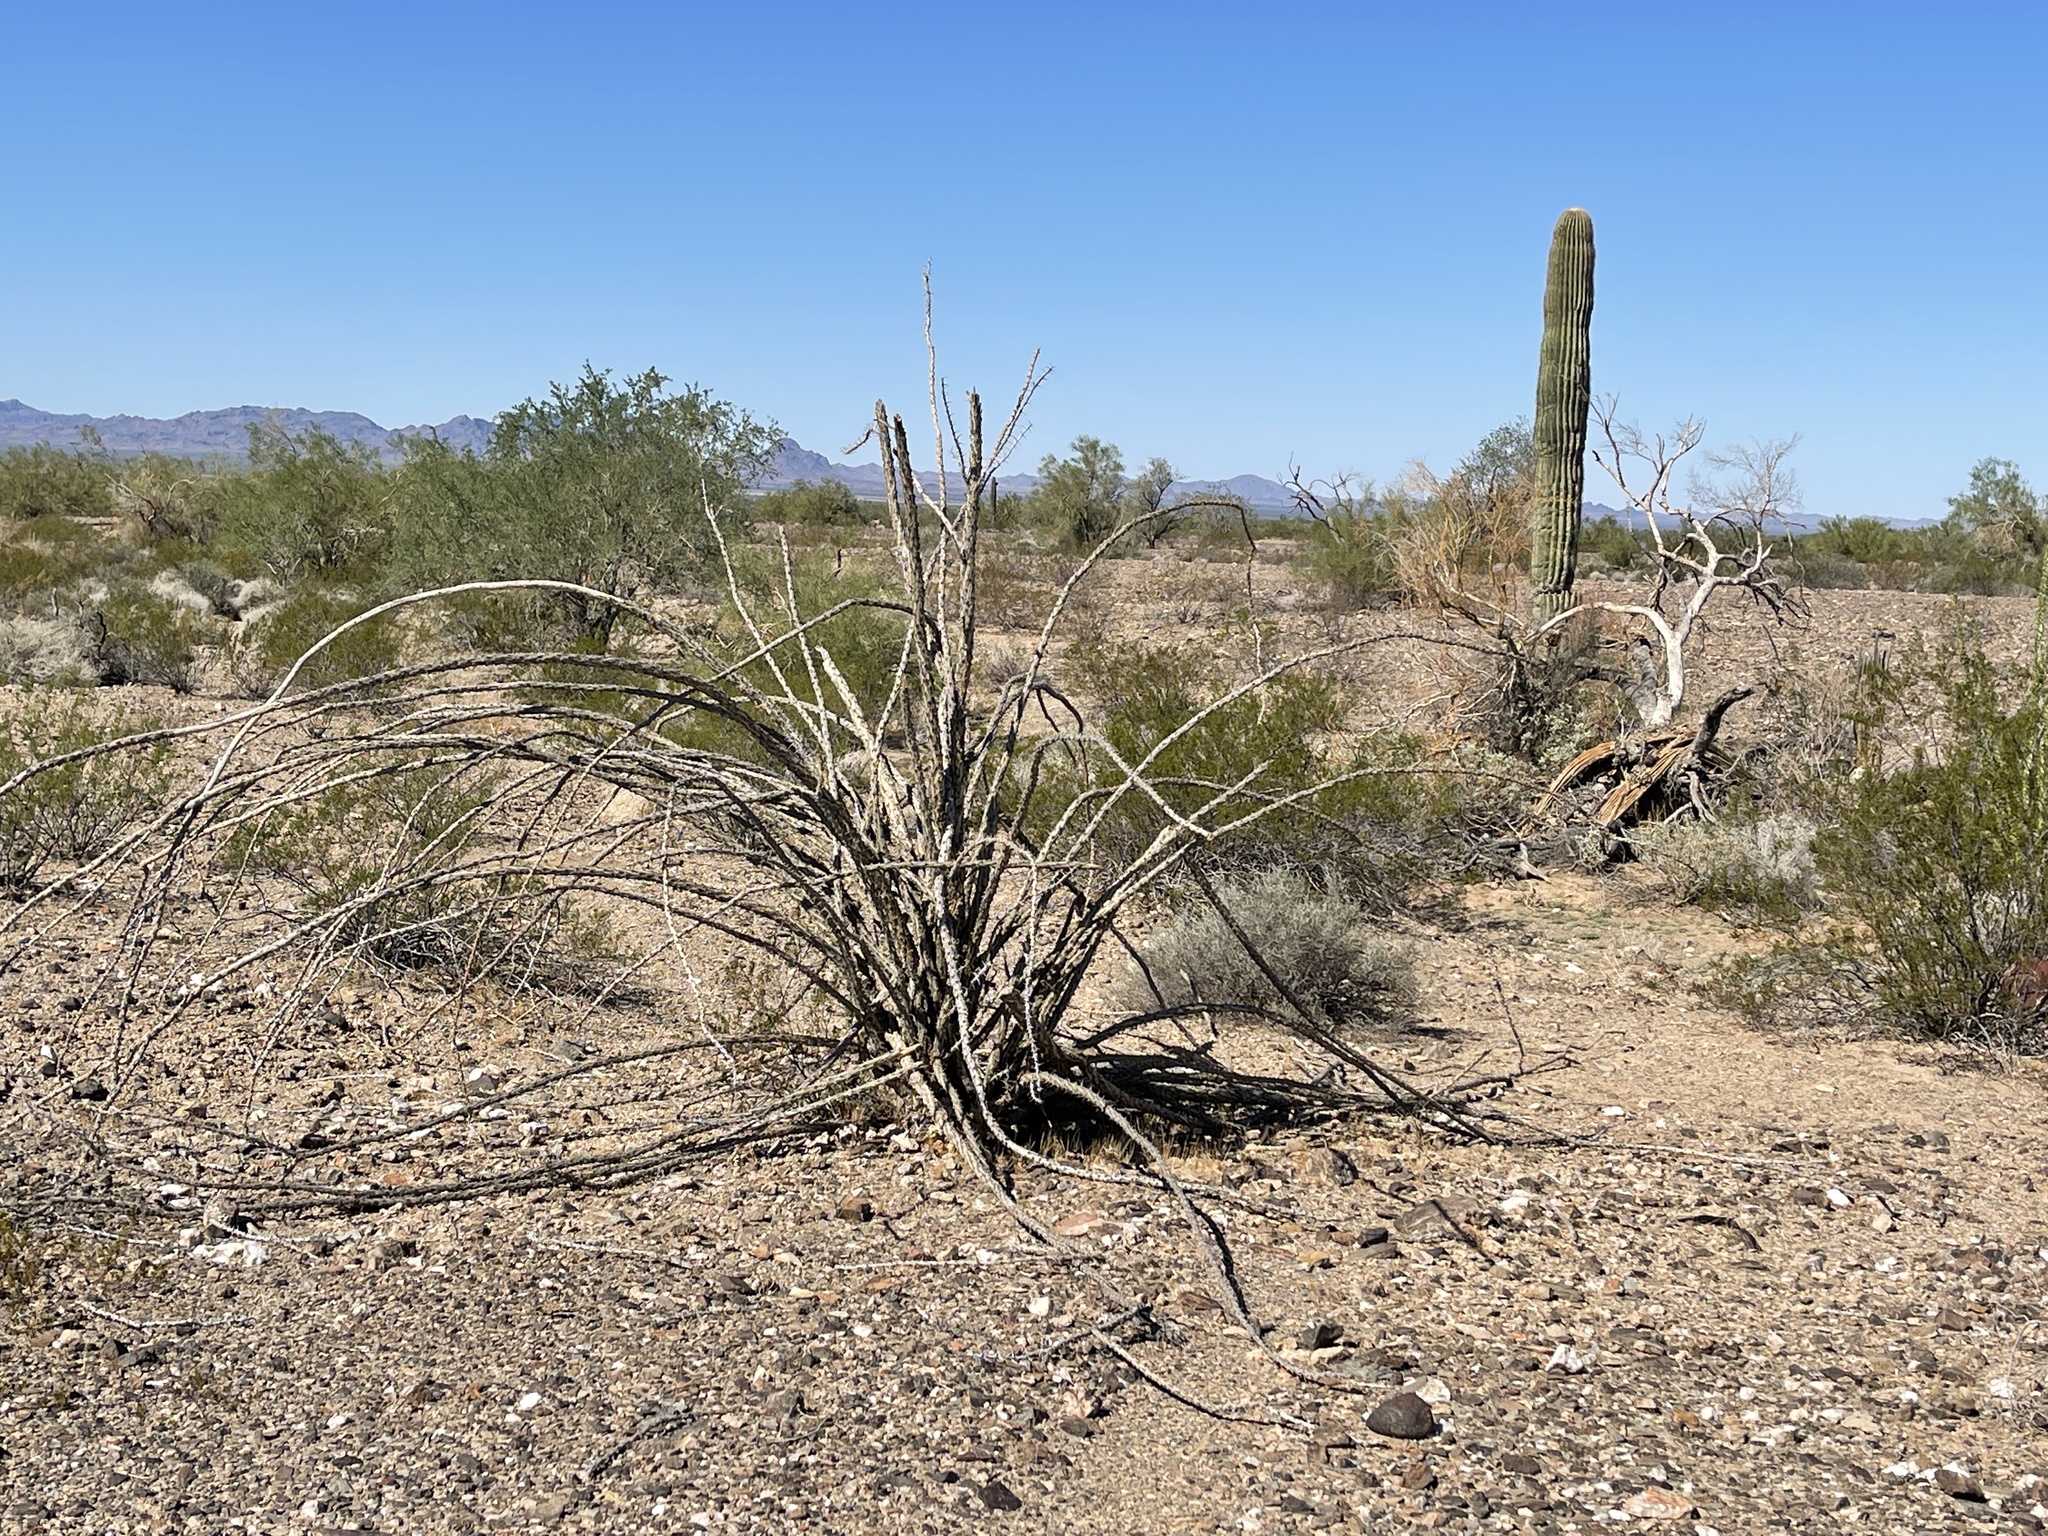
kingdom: Plantae
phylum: Tracheophyta
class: Magnoliopsida
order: Ericales
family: Fouquieriaceae
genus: Fouquieria
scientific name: Fouquieria splendens
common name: Vine-cactus
